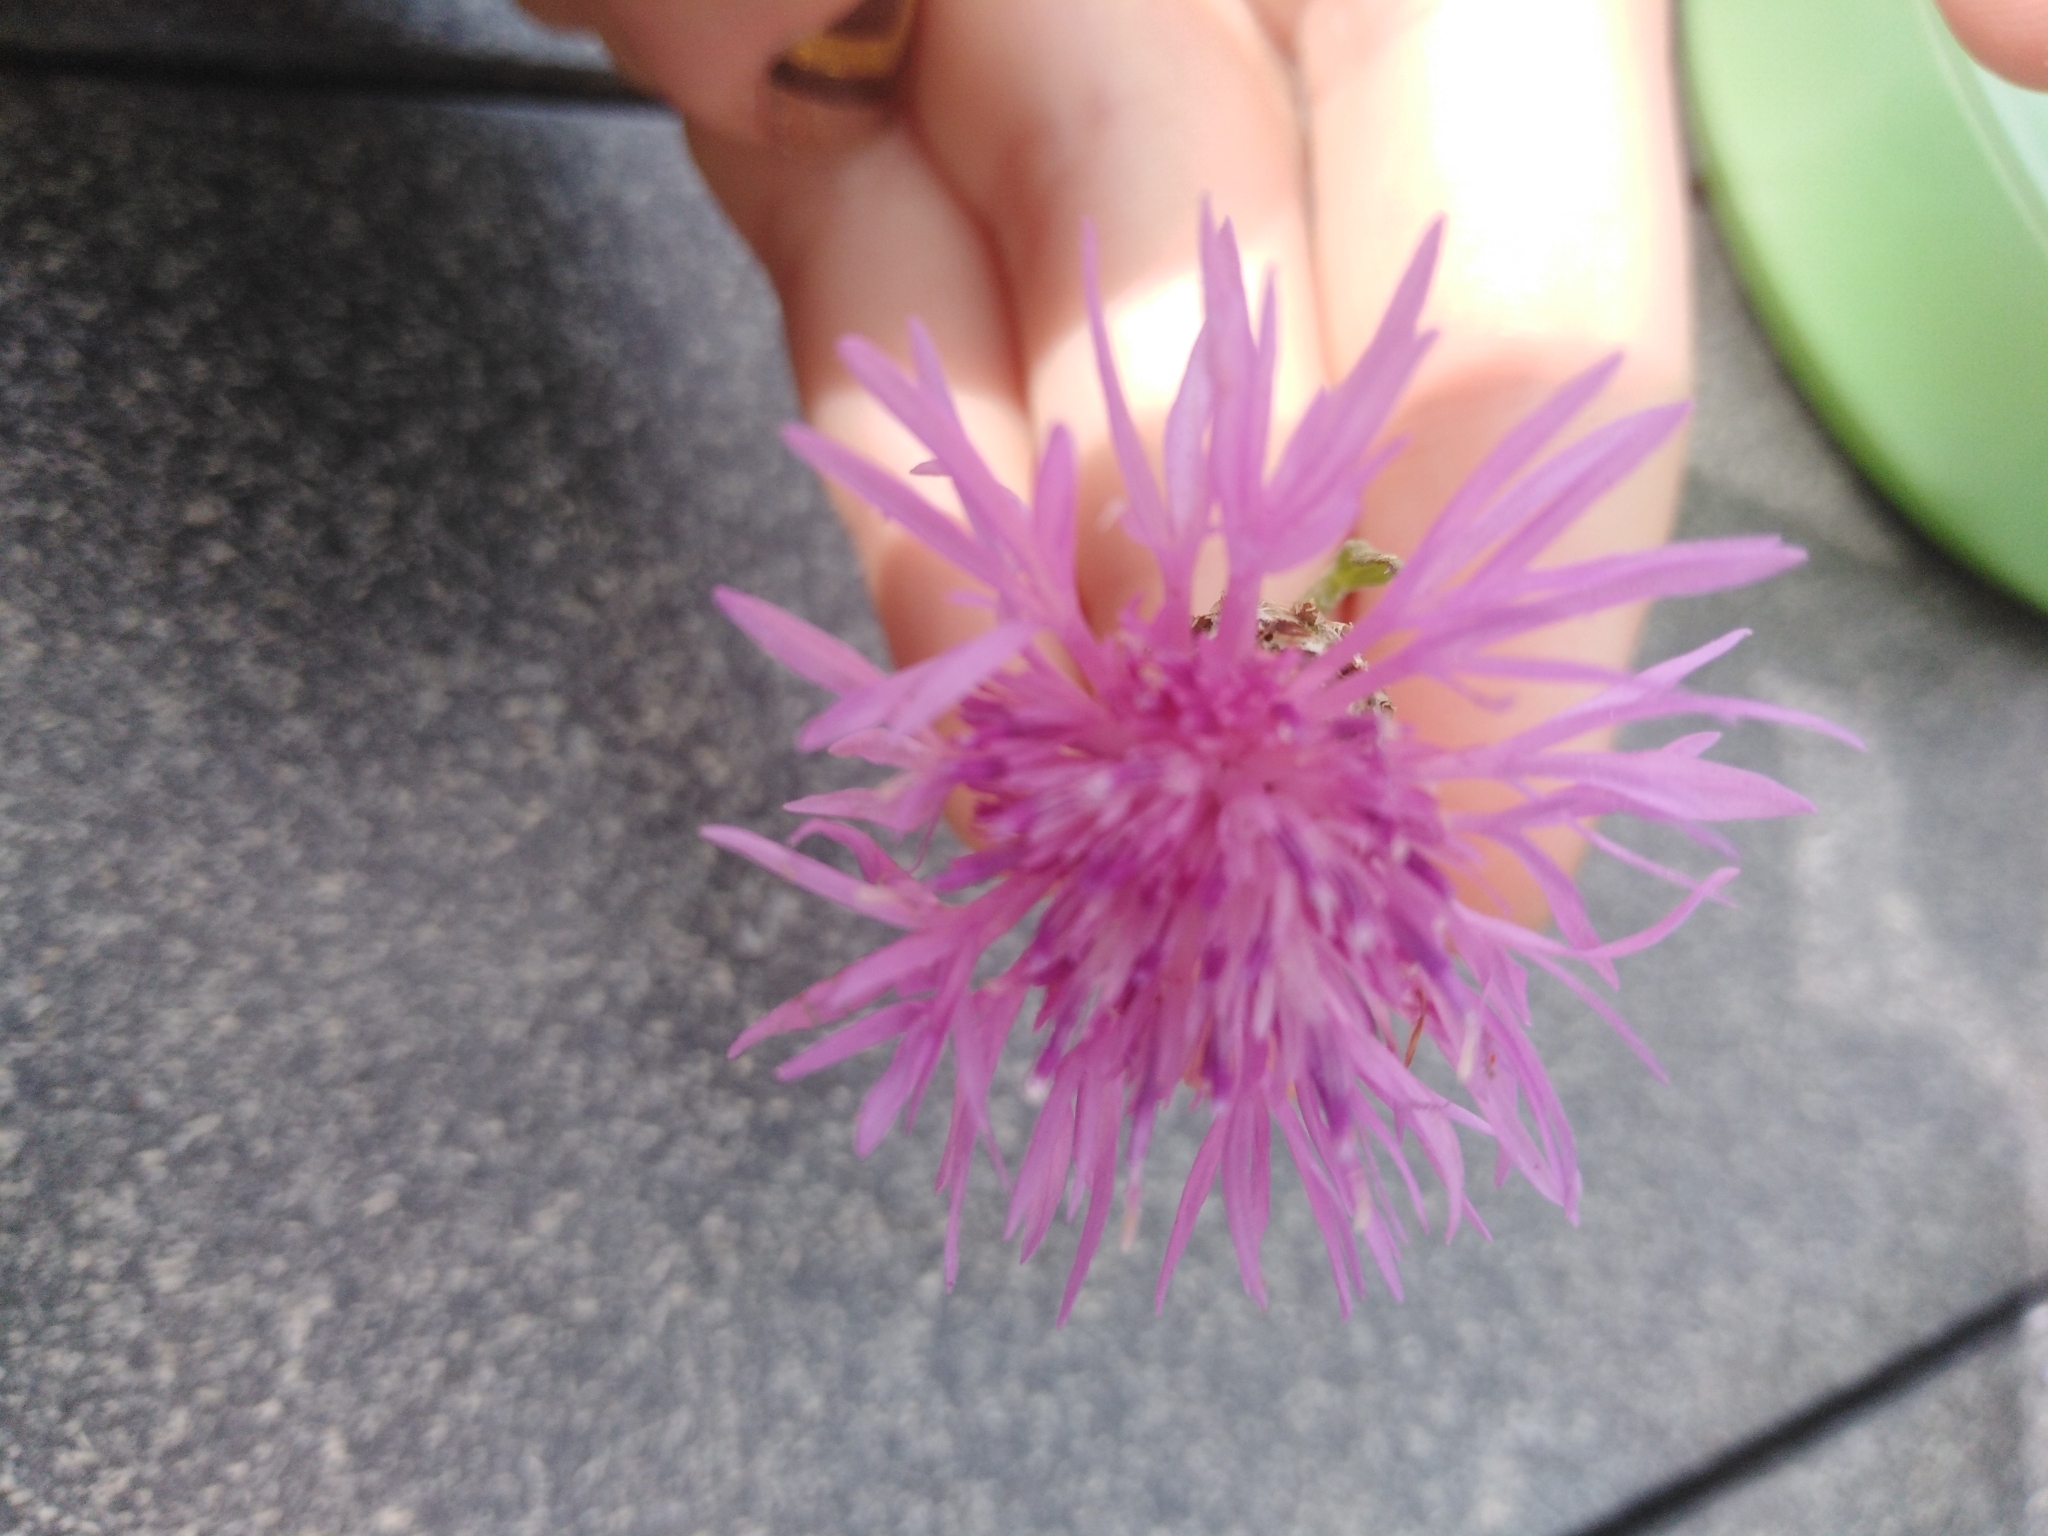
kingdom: Plantae
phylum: Tracheophyta
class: Magnoliopsida
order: Asterales
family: Asteraceae
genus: Centaurea
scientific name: Centaurea jacea
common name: Brown knapweed
